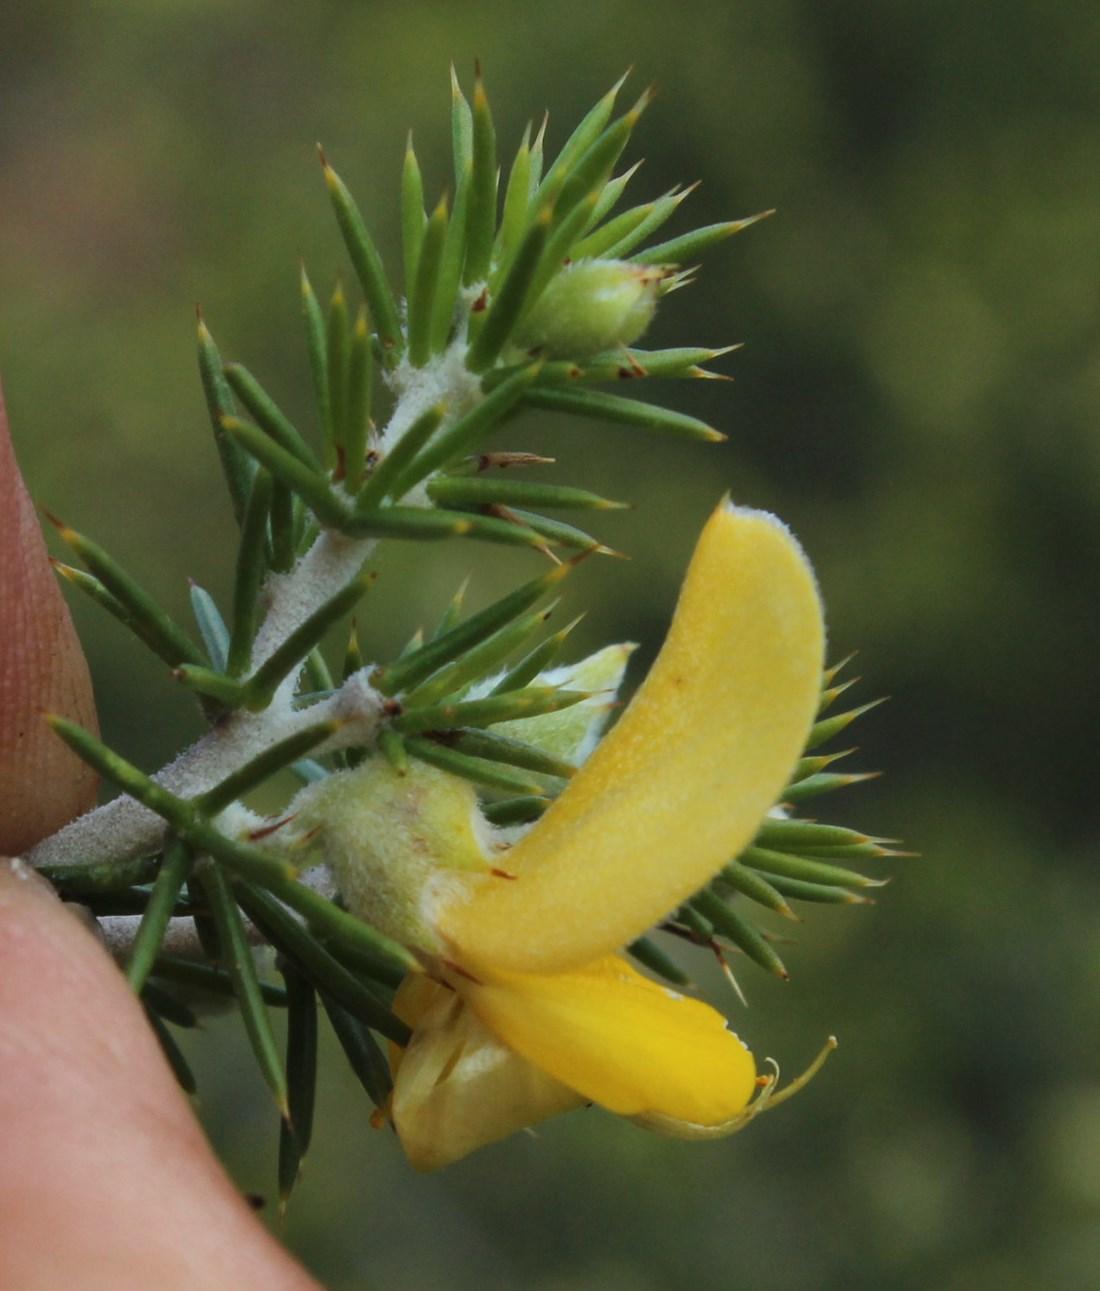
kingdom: Plantae
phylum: Tracheophyta
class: Magnoliopsida
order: Fabales
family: Fabaceae
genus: Aspalathus
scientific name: Aspalathus hirta
